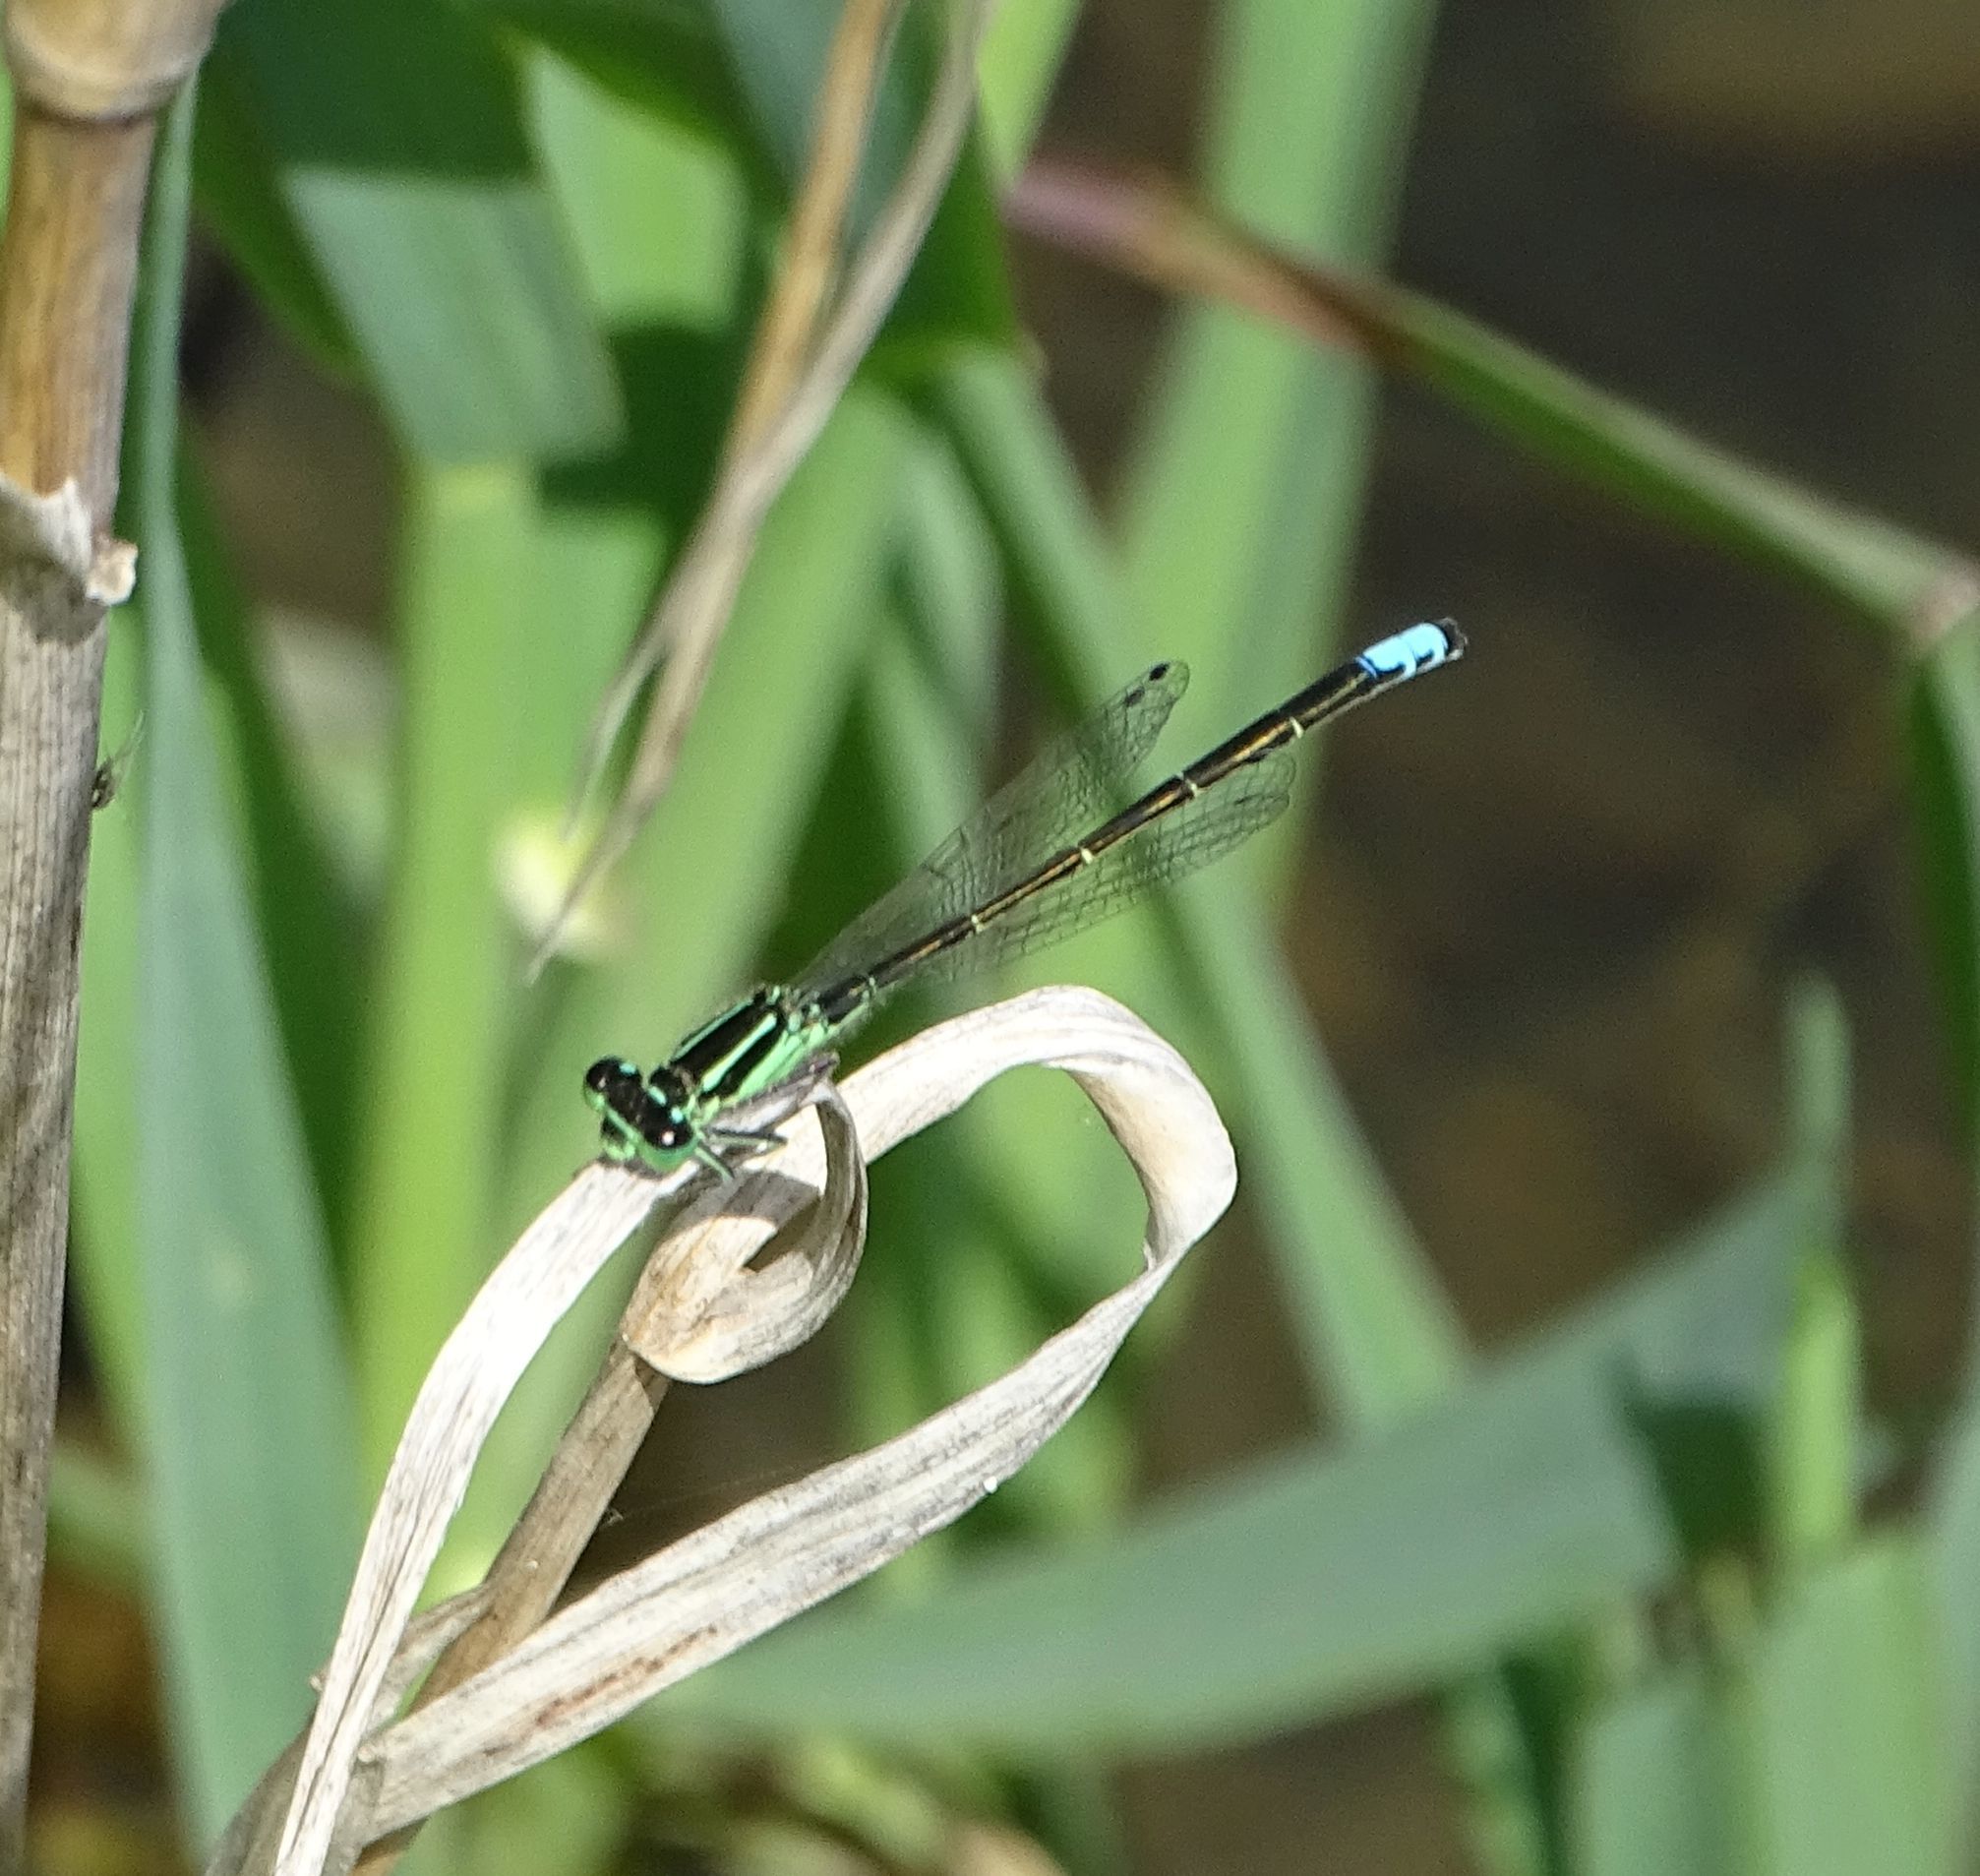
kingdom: Animalia
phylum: Arthropoda
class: Insecta
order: Odonata
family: Coenagrionidae
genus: Ischnura
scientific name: Ischnura verticalis
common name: Eastern forktail
